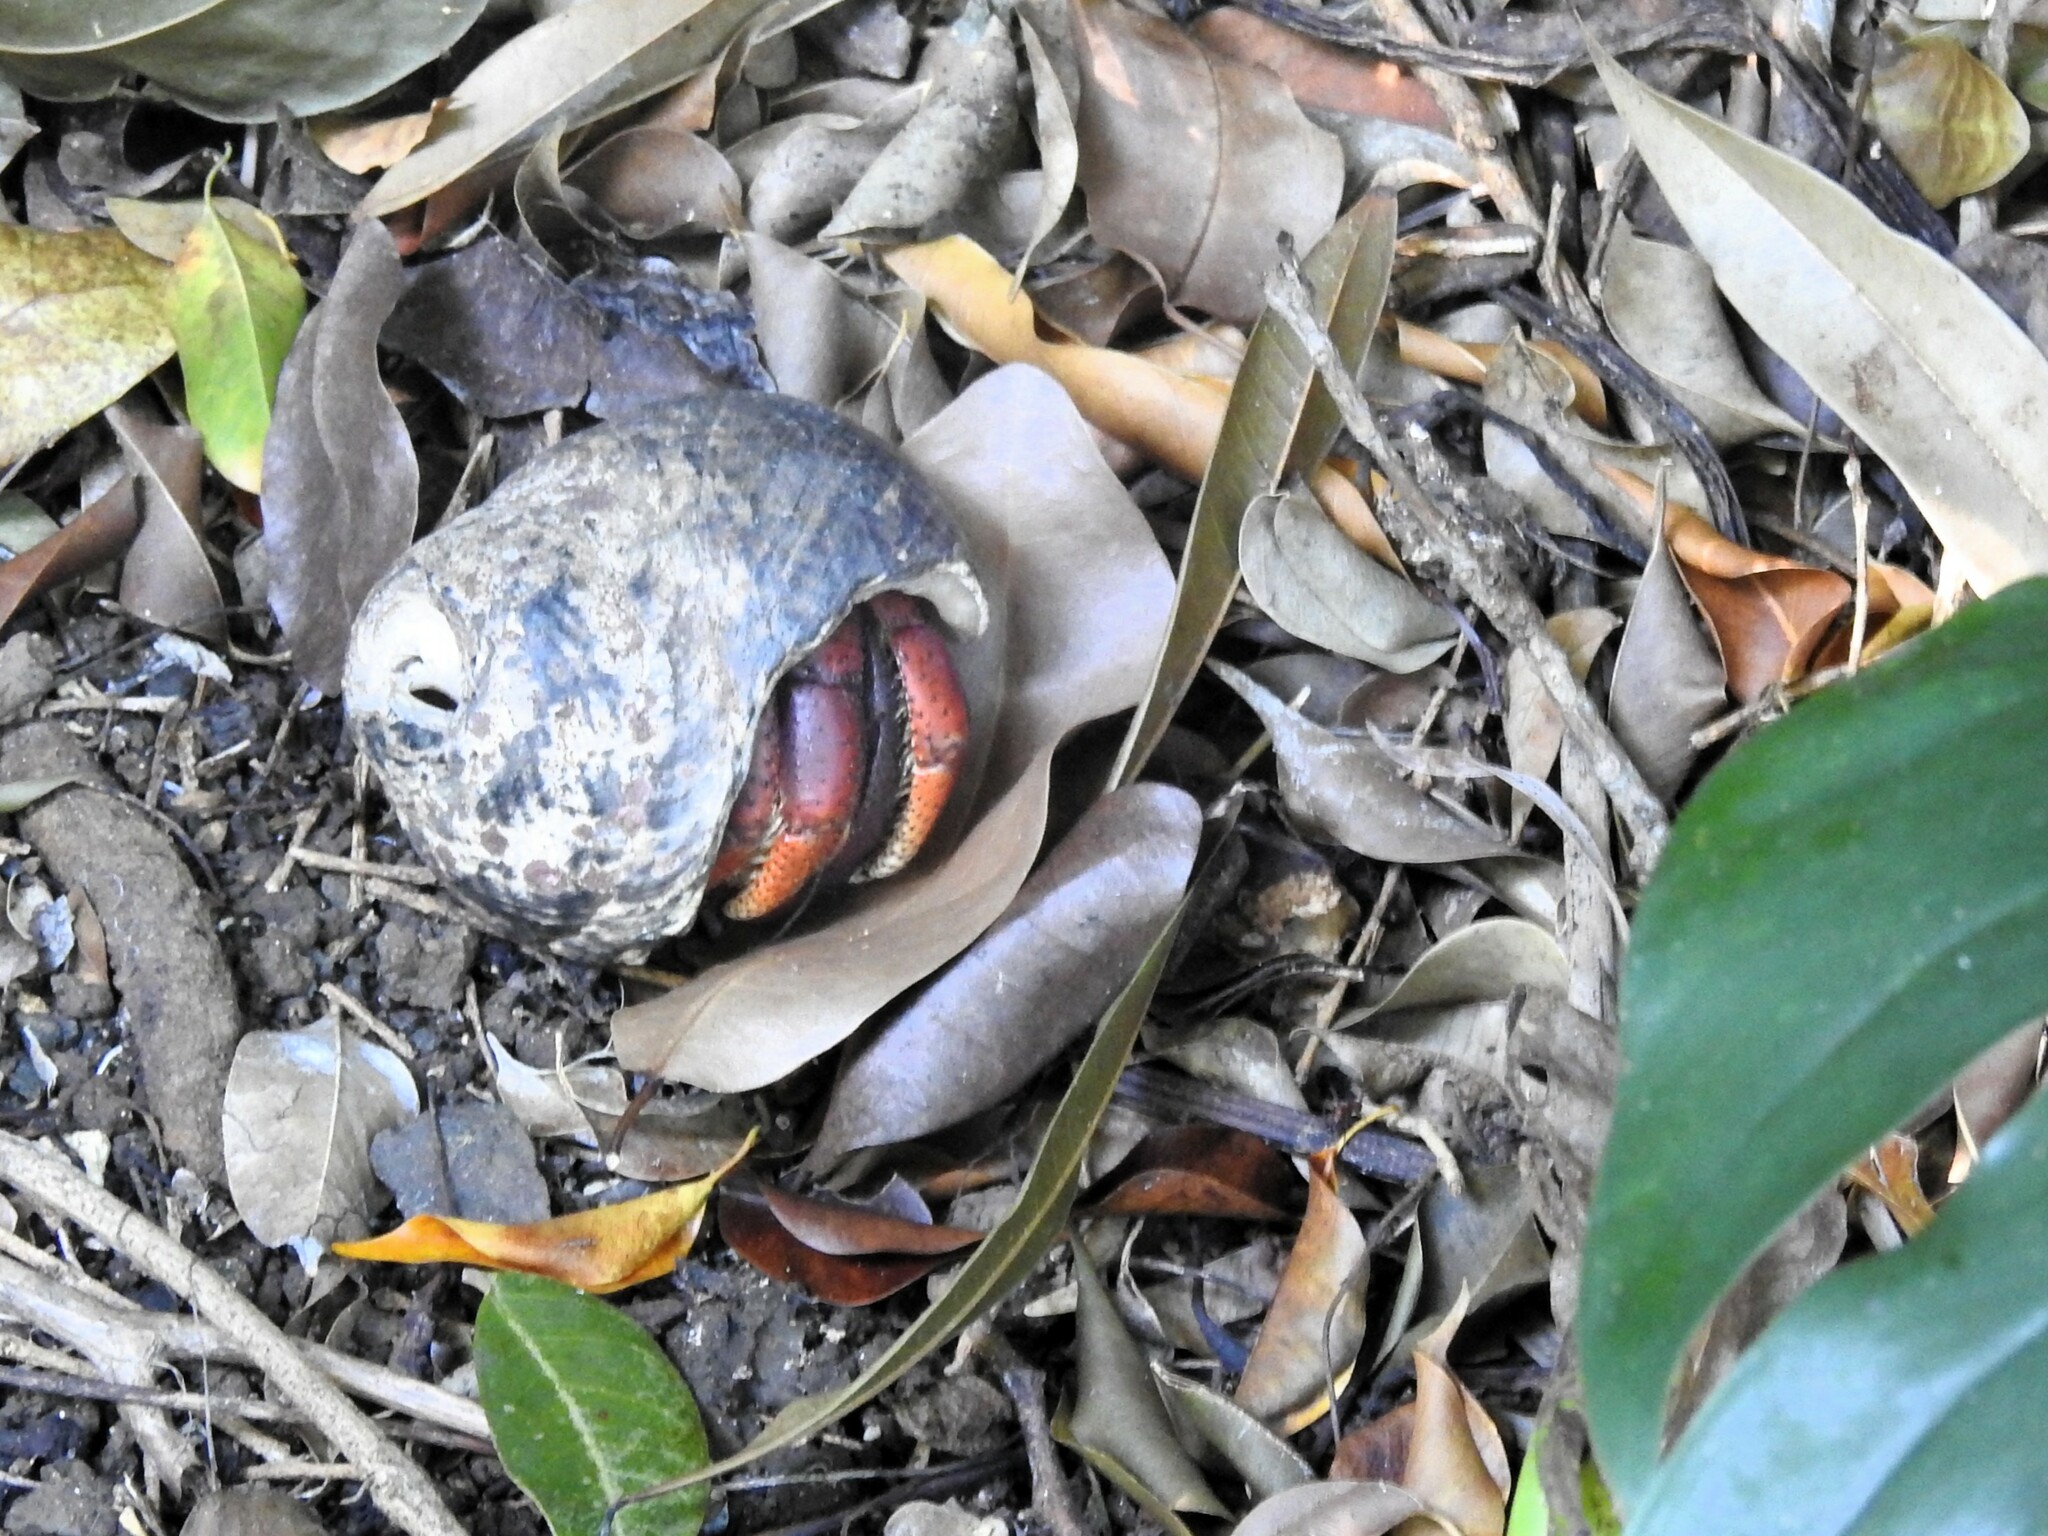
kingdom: Animalia
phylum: Arthropoda
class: Malacostraca
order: Decapoda
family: Coenobitidae
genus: Coenobita
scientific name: Coenobita clypeatus
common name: Caribbean hermit crab
